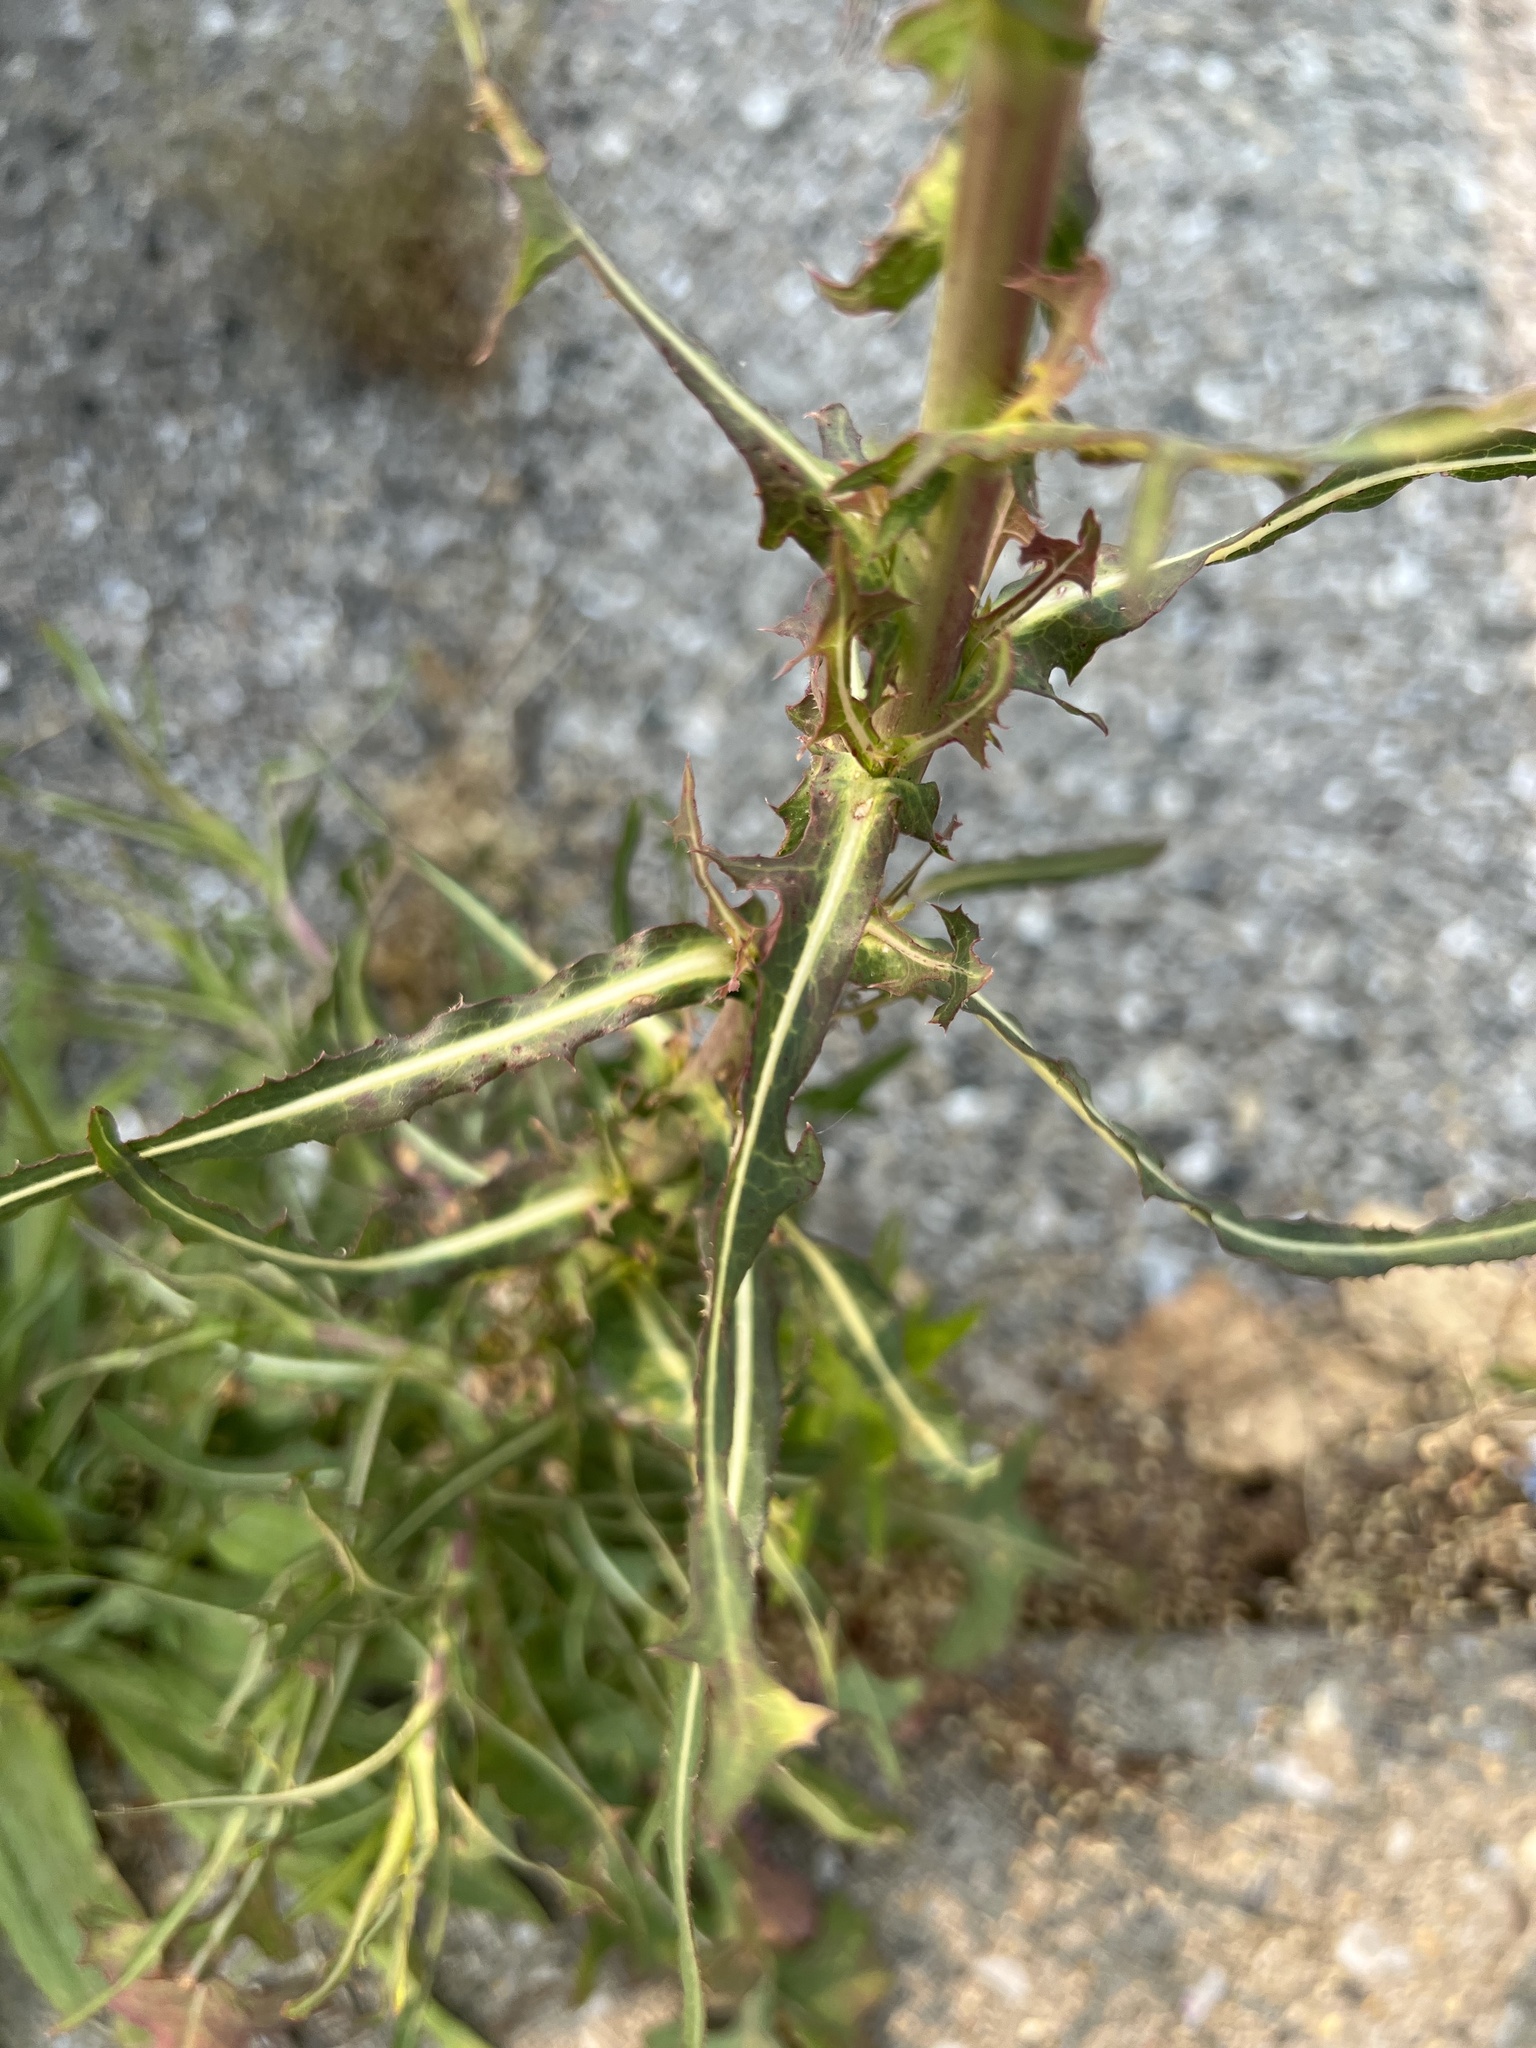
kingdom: Plantae
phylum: Tracheophyta
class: Magnoliopsida
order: Asterales
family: Asteraceae
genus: Lactuca
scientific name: Lactuca serriola
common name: Prickly lettuce
